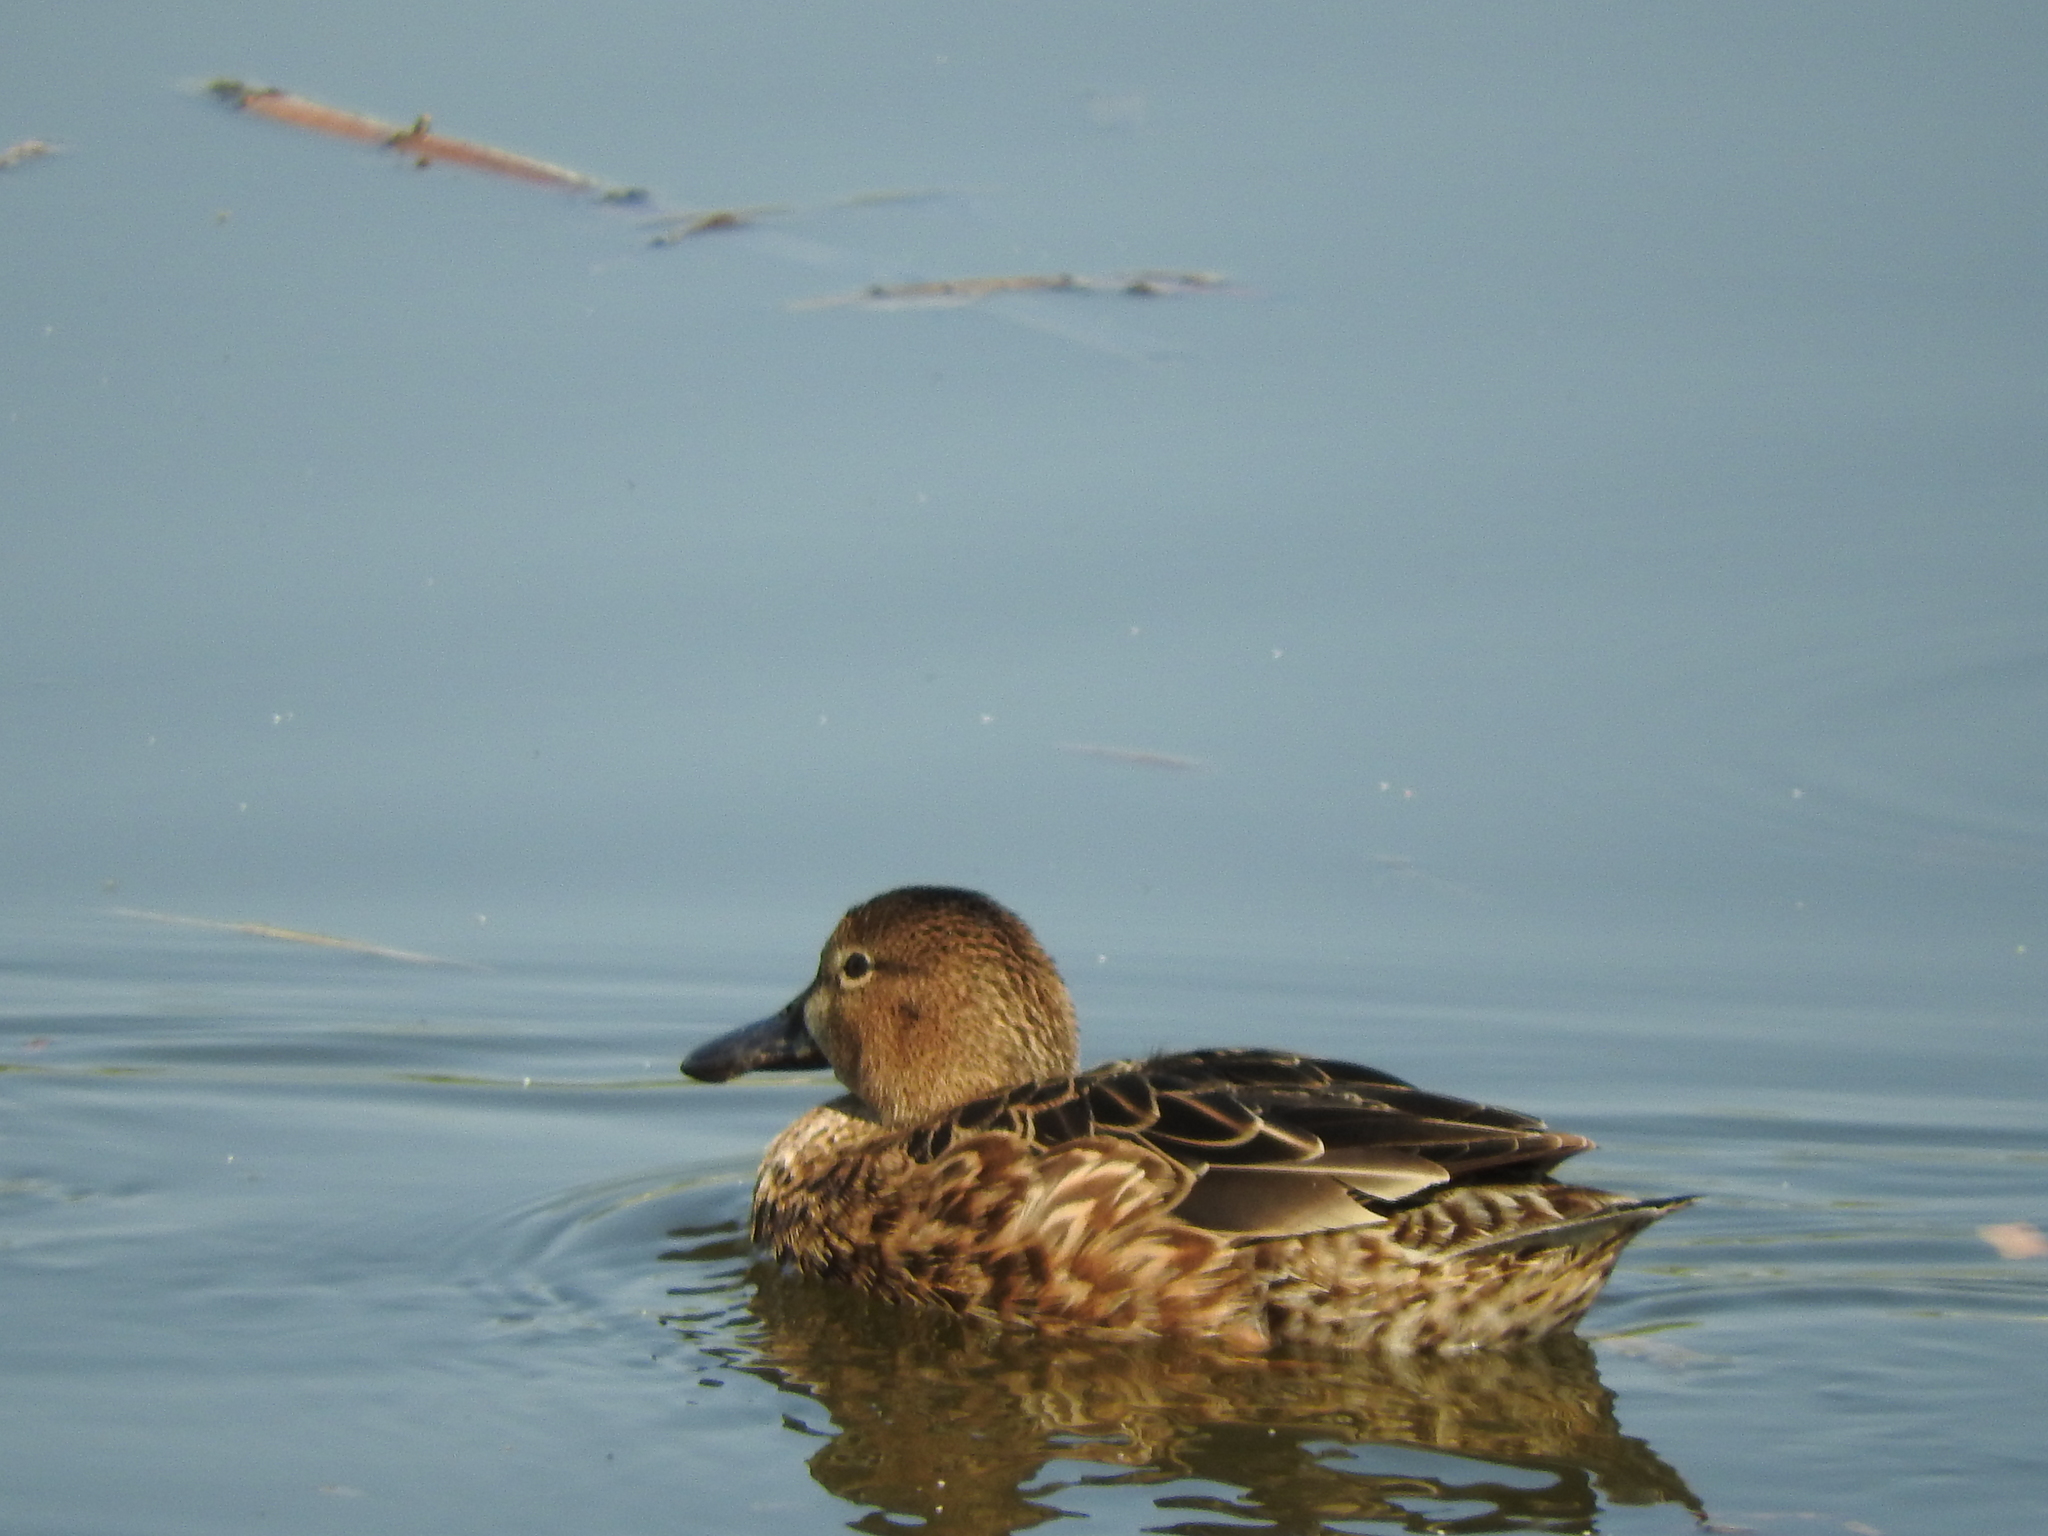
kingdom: Animalia
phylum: Chordata
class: Aves
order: Anseriformes
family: Anatidae
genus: Spatula
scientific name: Spatula discors
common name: Blue-winged teal
